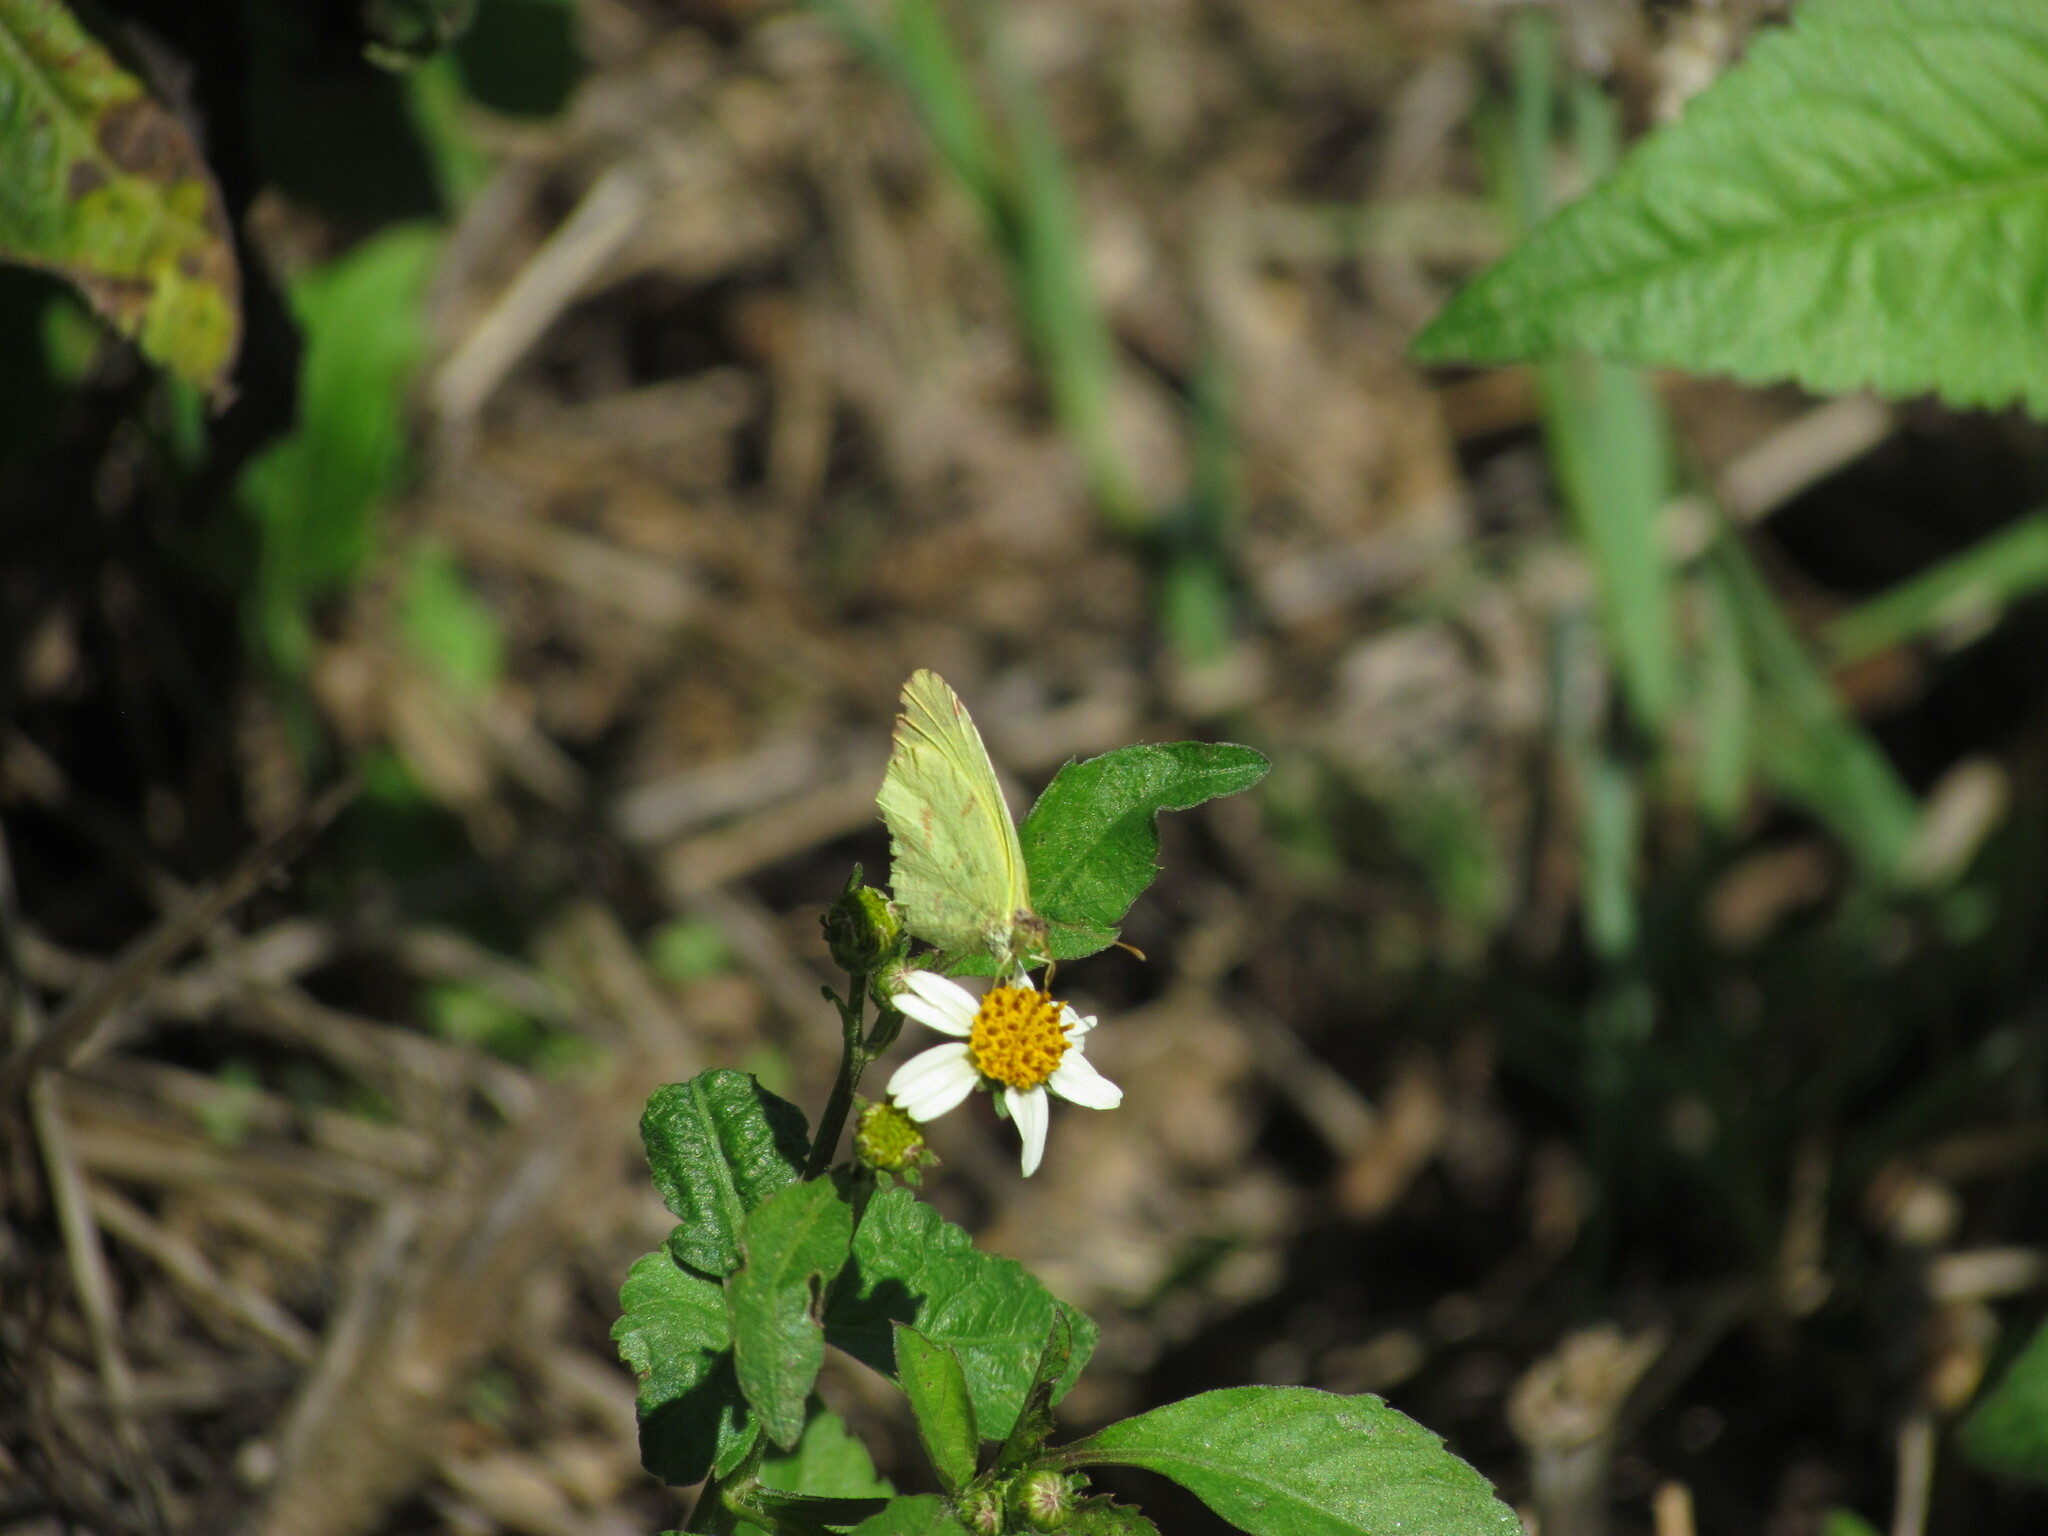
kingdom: Animalia
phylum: Arthropoda
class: Insecta
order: Lepidoptera
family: Pieridae
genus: Teriocolias
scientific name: Teriocolias
